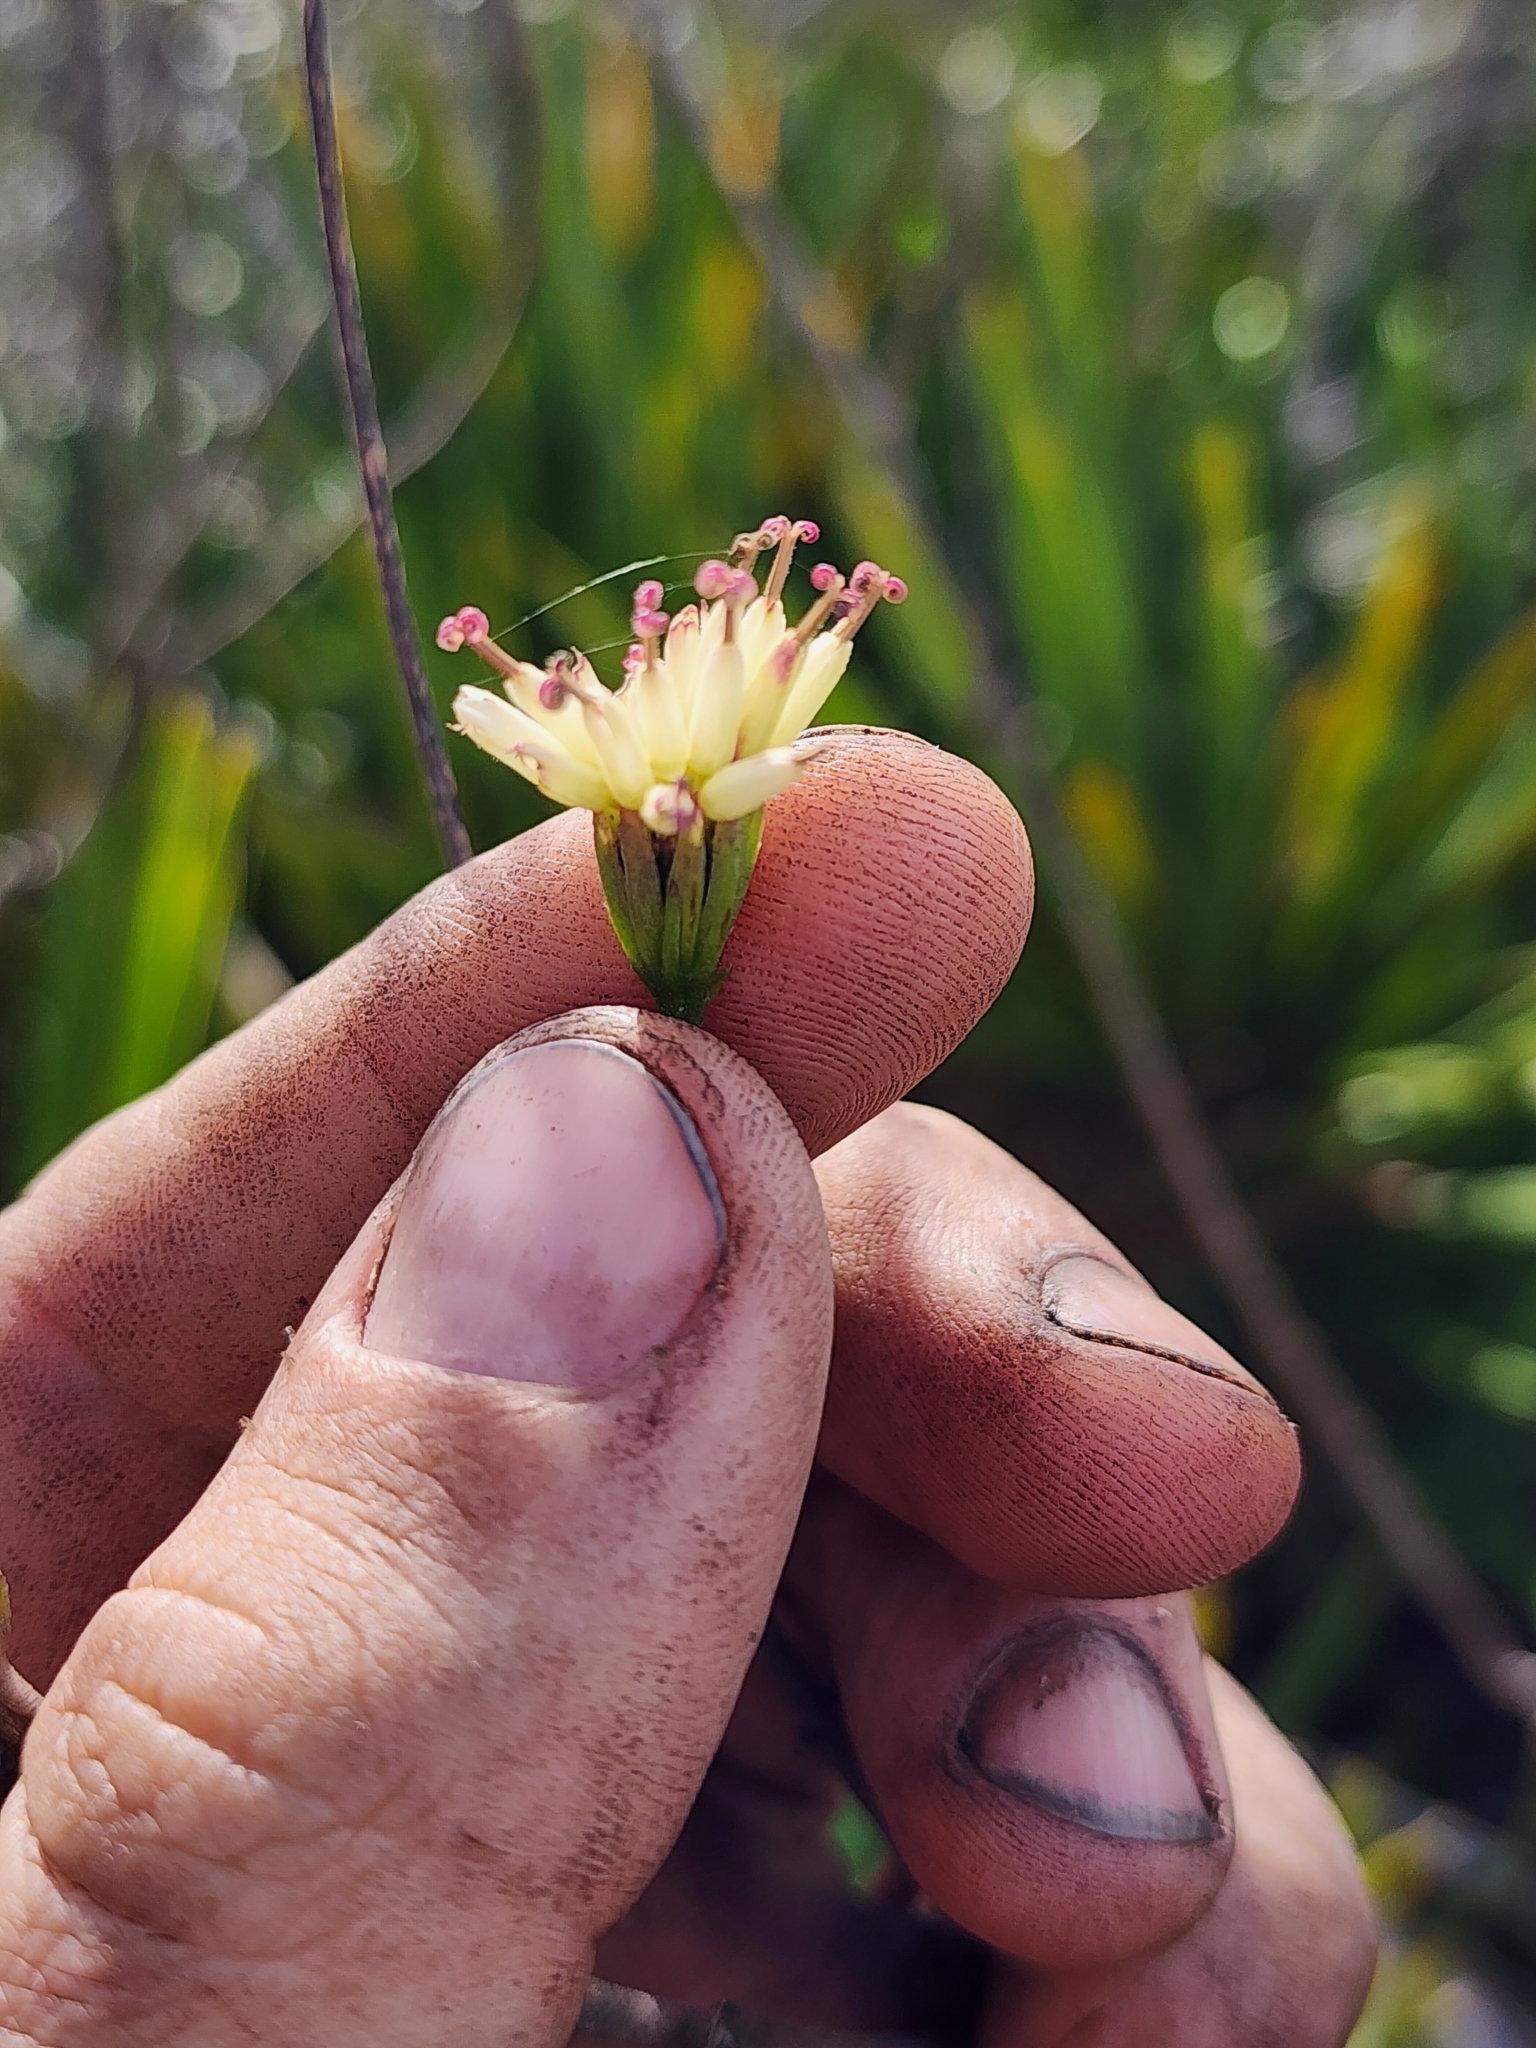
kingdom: Plantae
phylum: Tracheophyta
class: Magnoliopsida
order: Asterales
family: Asteraceae
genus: Palafoxia
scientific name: Palafoxia feayi
